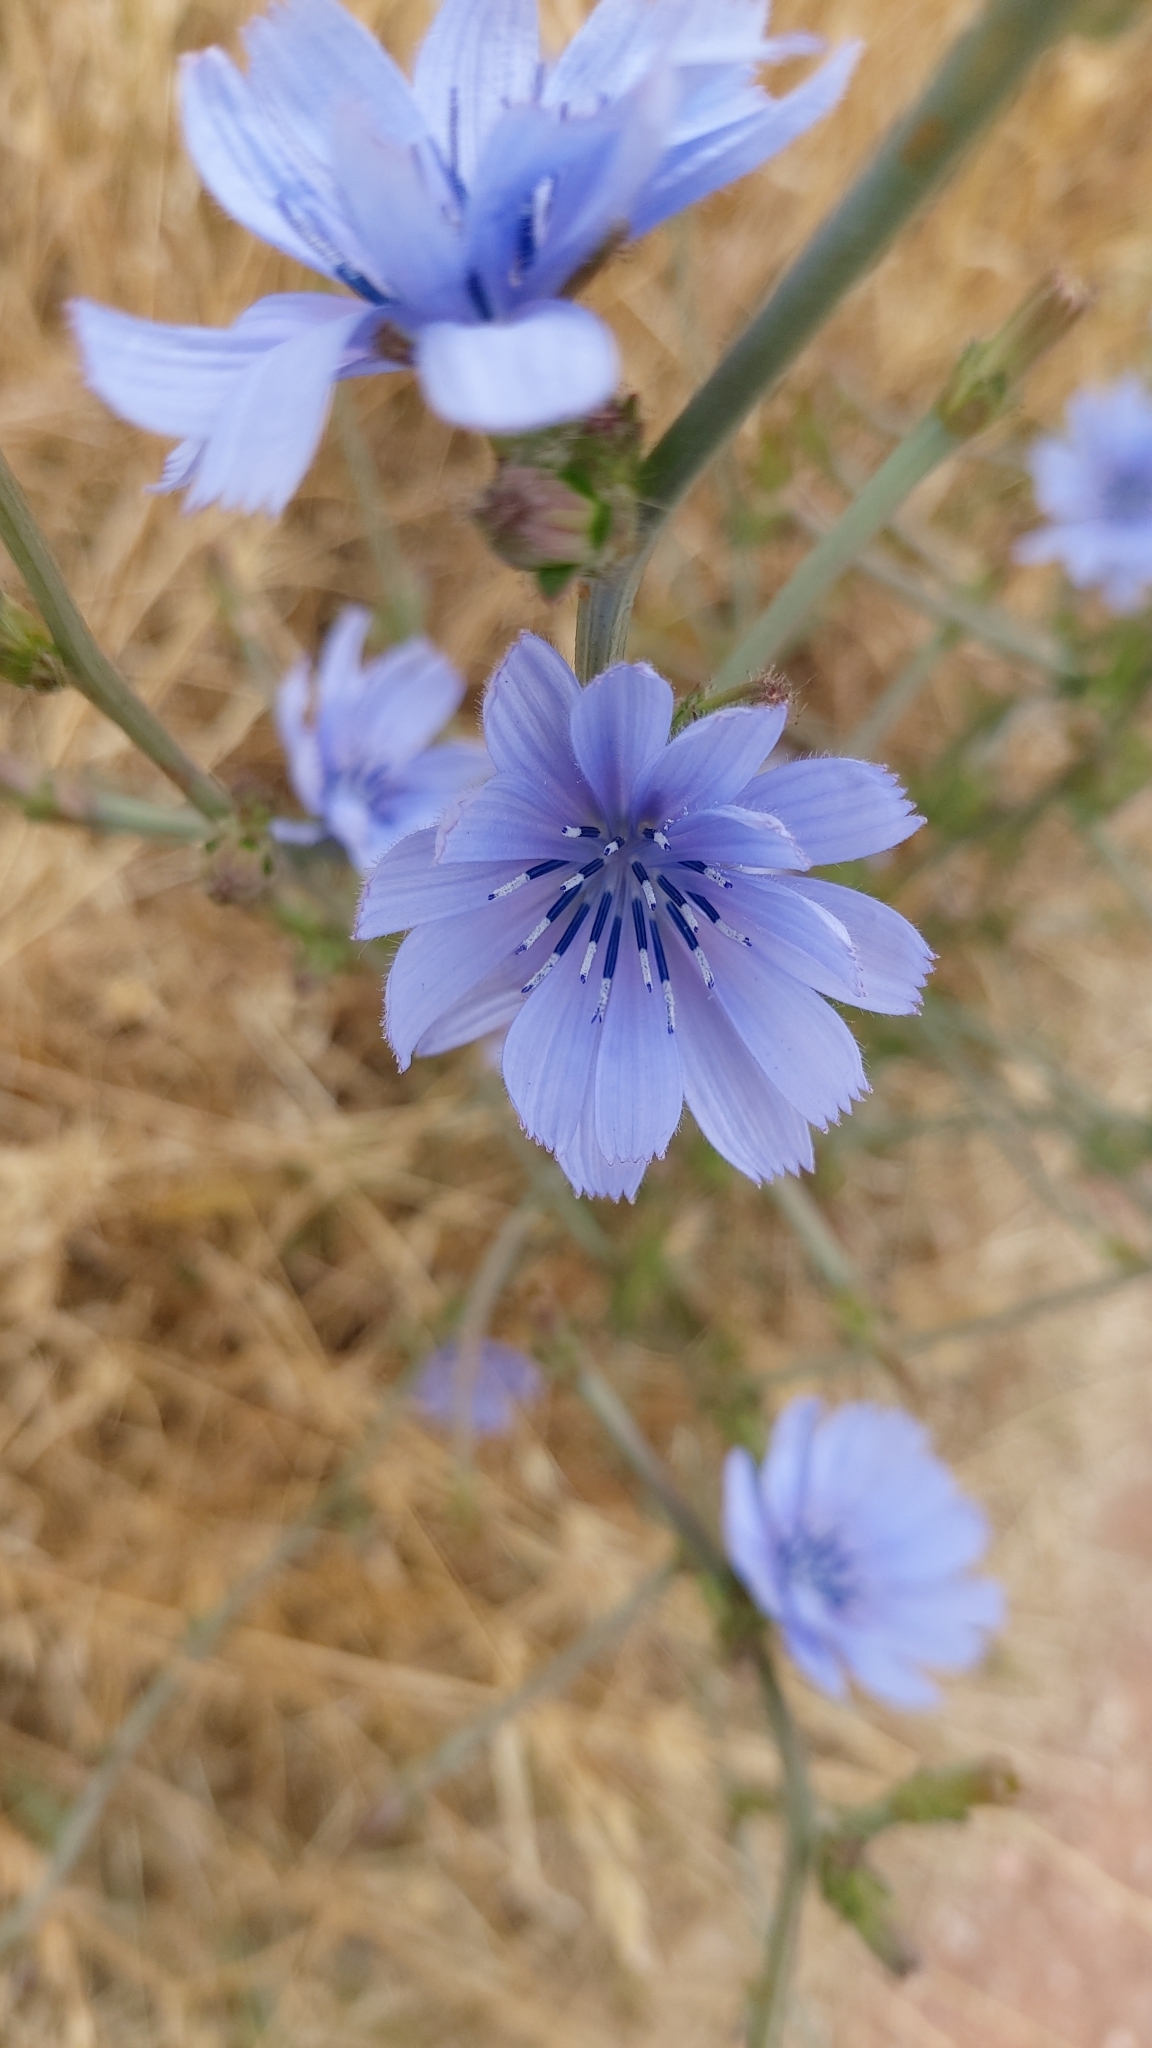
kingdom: Plantae
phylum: Tracheophyta
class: Magnoliopsida
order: Asterales
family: Asteraceae
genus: Cichorium
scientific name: Cichorium intybus
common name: Chicory
